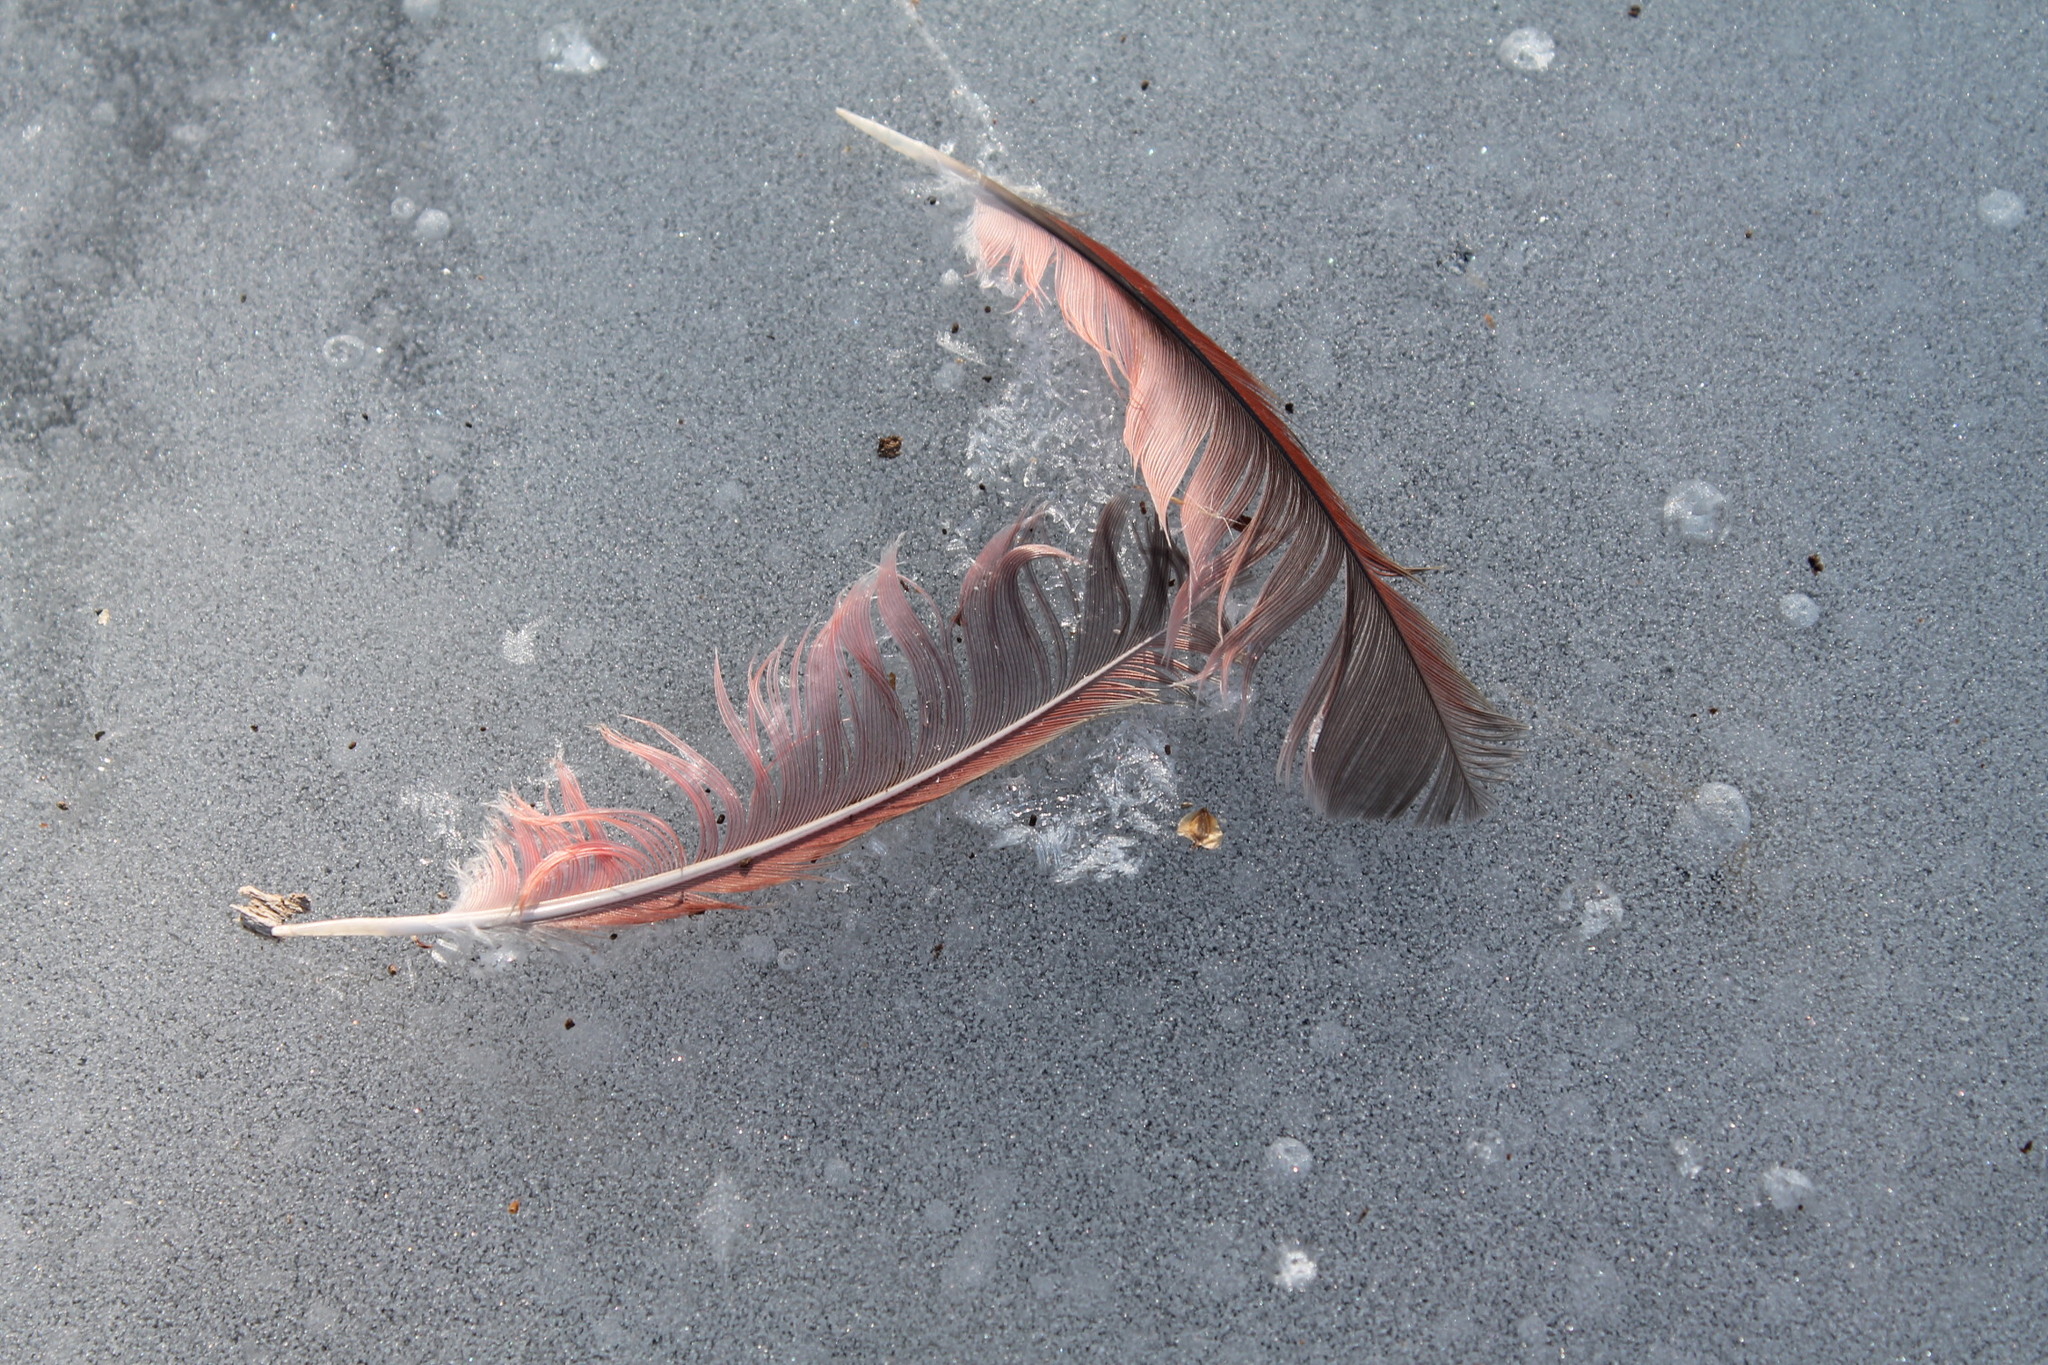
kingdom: Animalia
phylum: Chordata
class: Aves
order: Passeriformes
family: Cardinalidae
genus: Cardinalis
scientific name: Cardinalis cardinalis
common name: Northern cardinal
